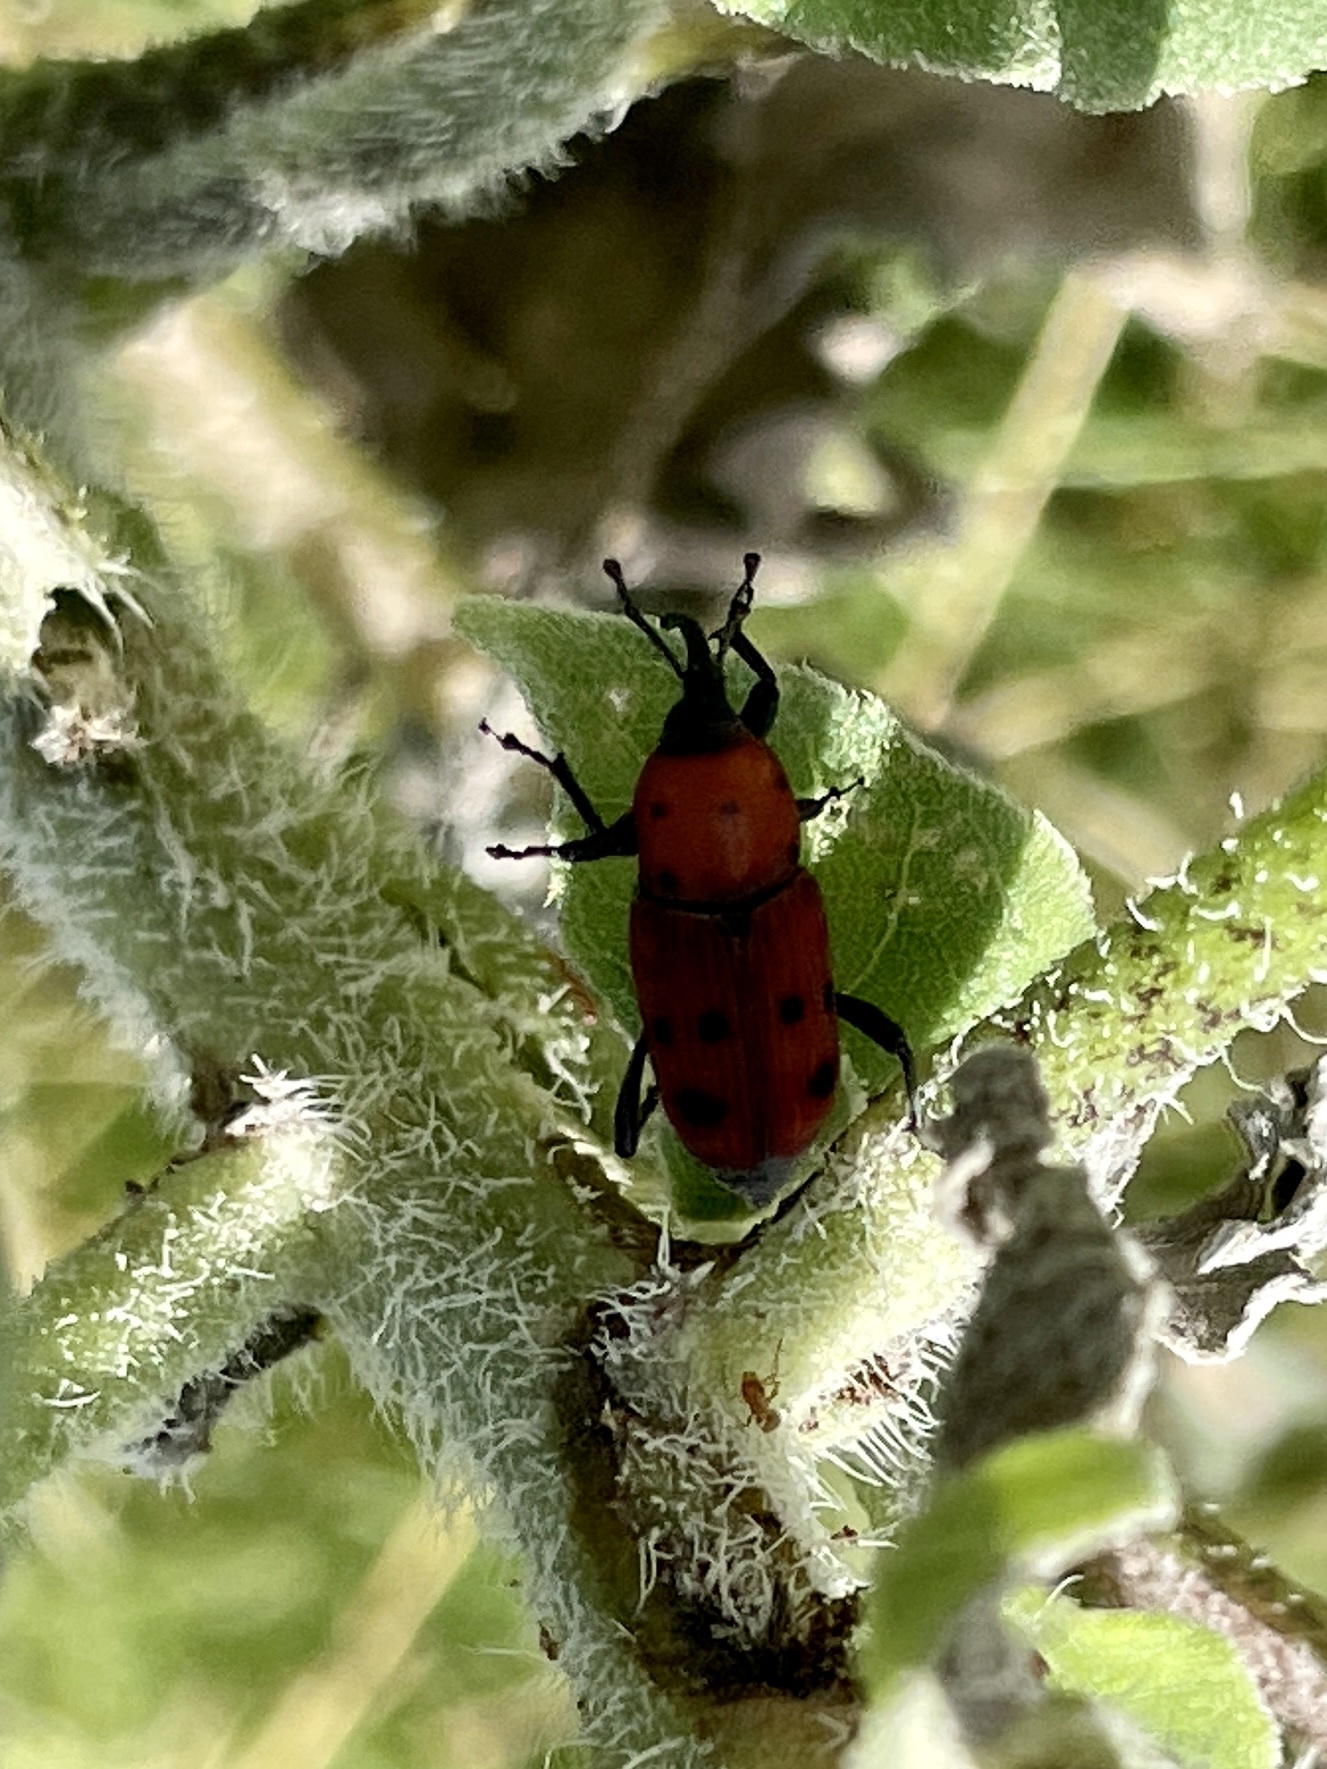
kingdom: Animalia
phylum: Arthropoda
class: Insecta
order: Coleoptera
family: Dryophthoridae
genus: Rhodobaenus
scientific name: Rhodobaenus tredecimpunctatus
